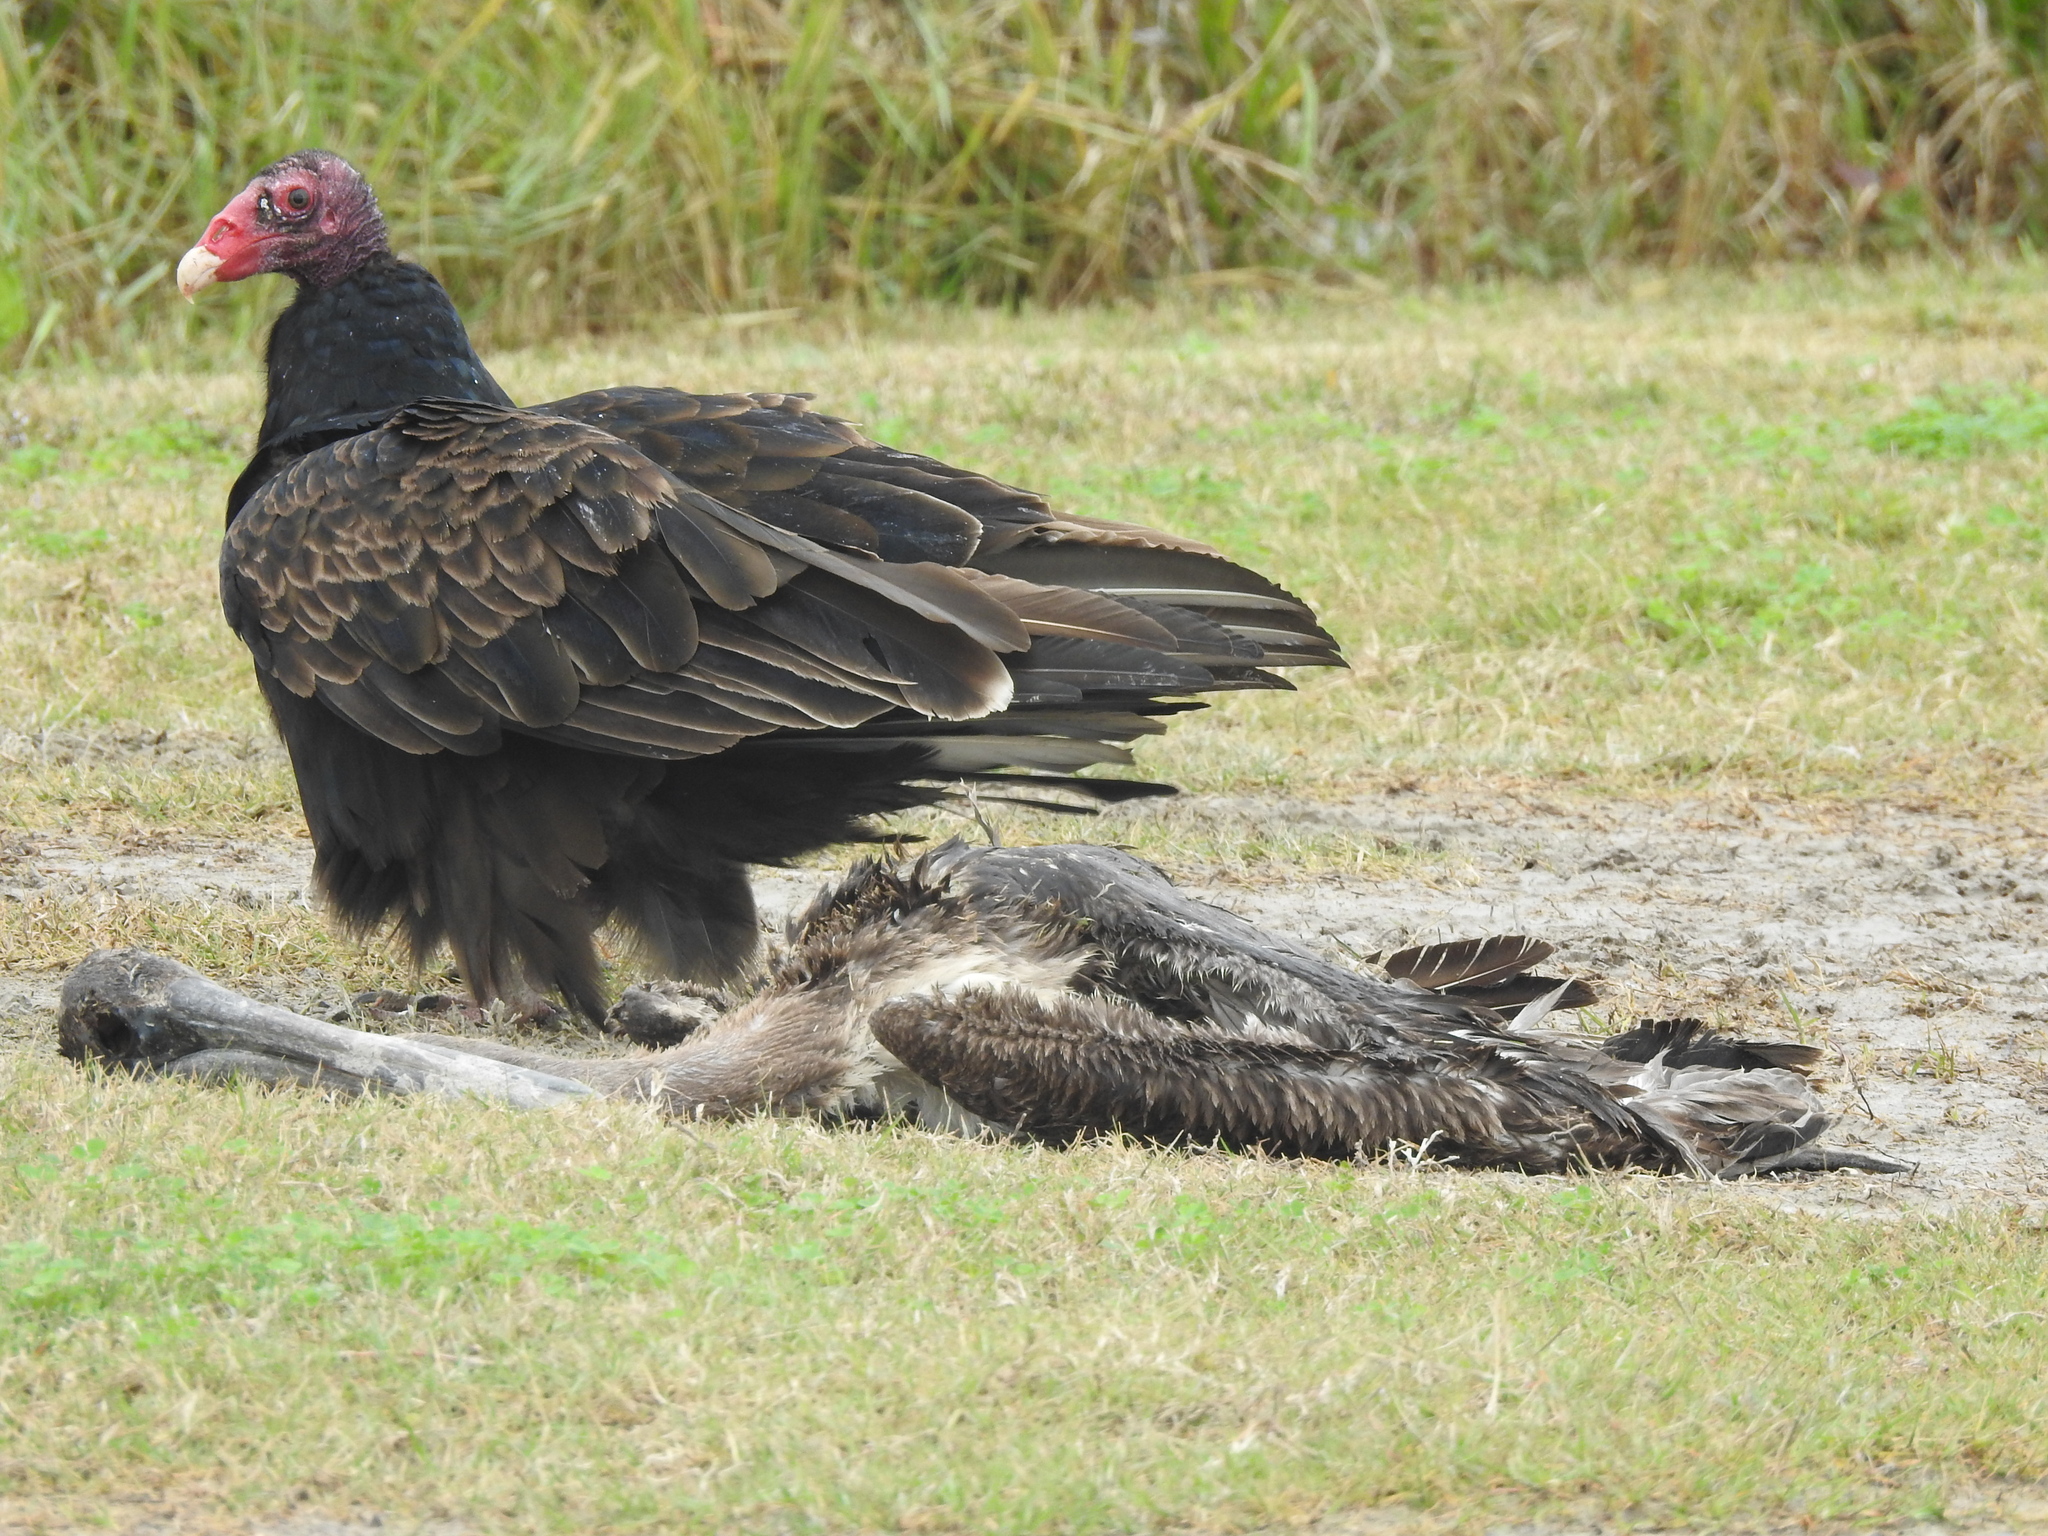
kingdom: Animalia
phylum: Chordata
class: Aves
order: Accipitriformes
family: Cathartidae
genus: Cathartes
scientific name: Cathartes aura
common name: Turkey vulture
